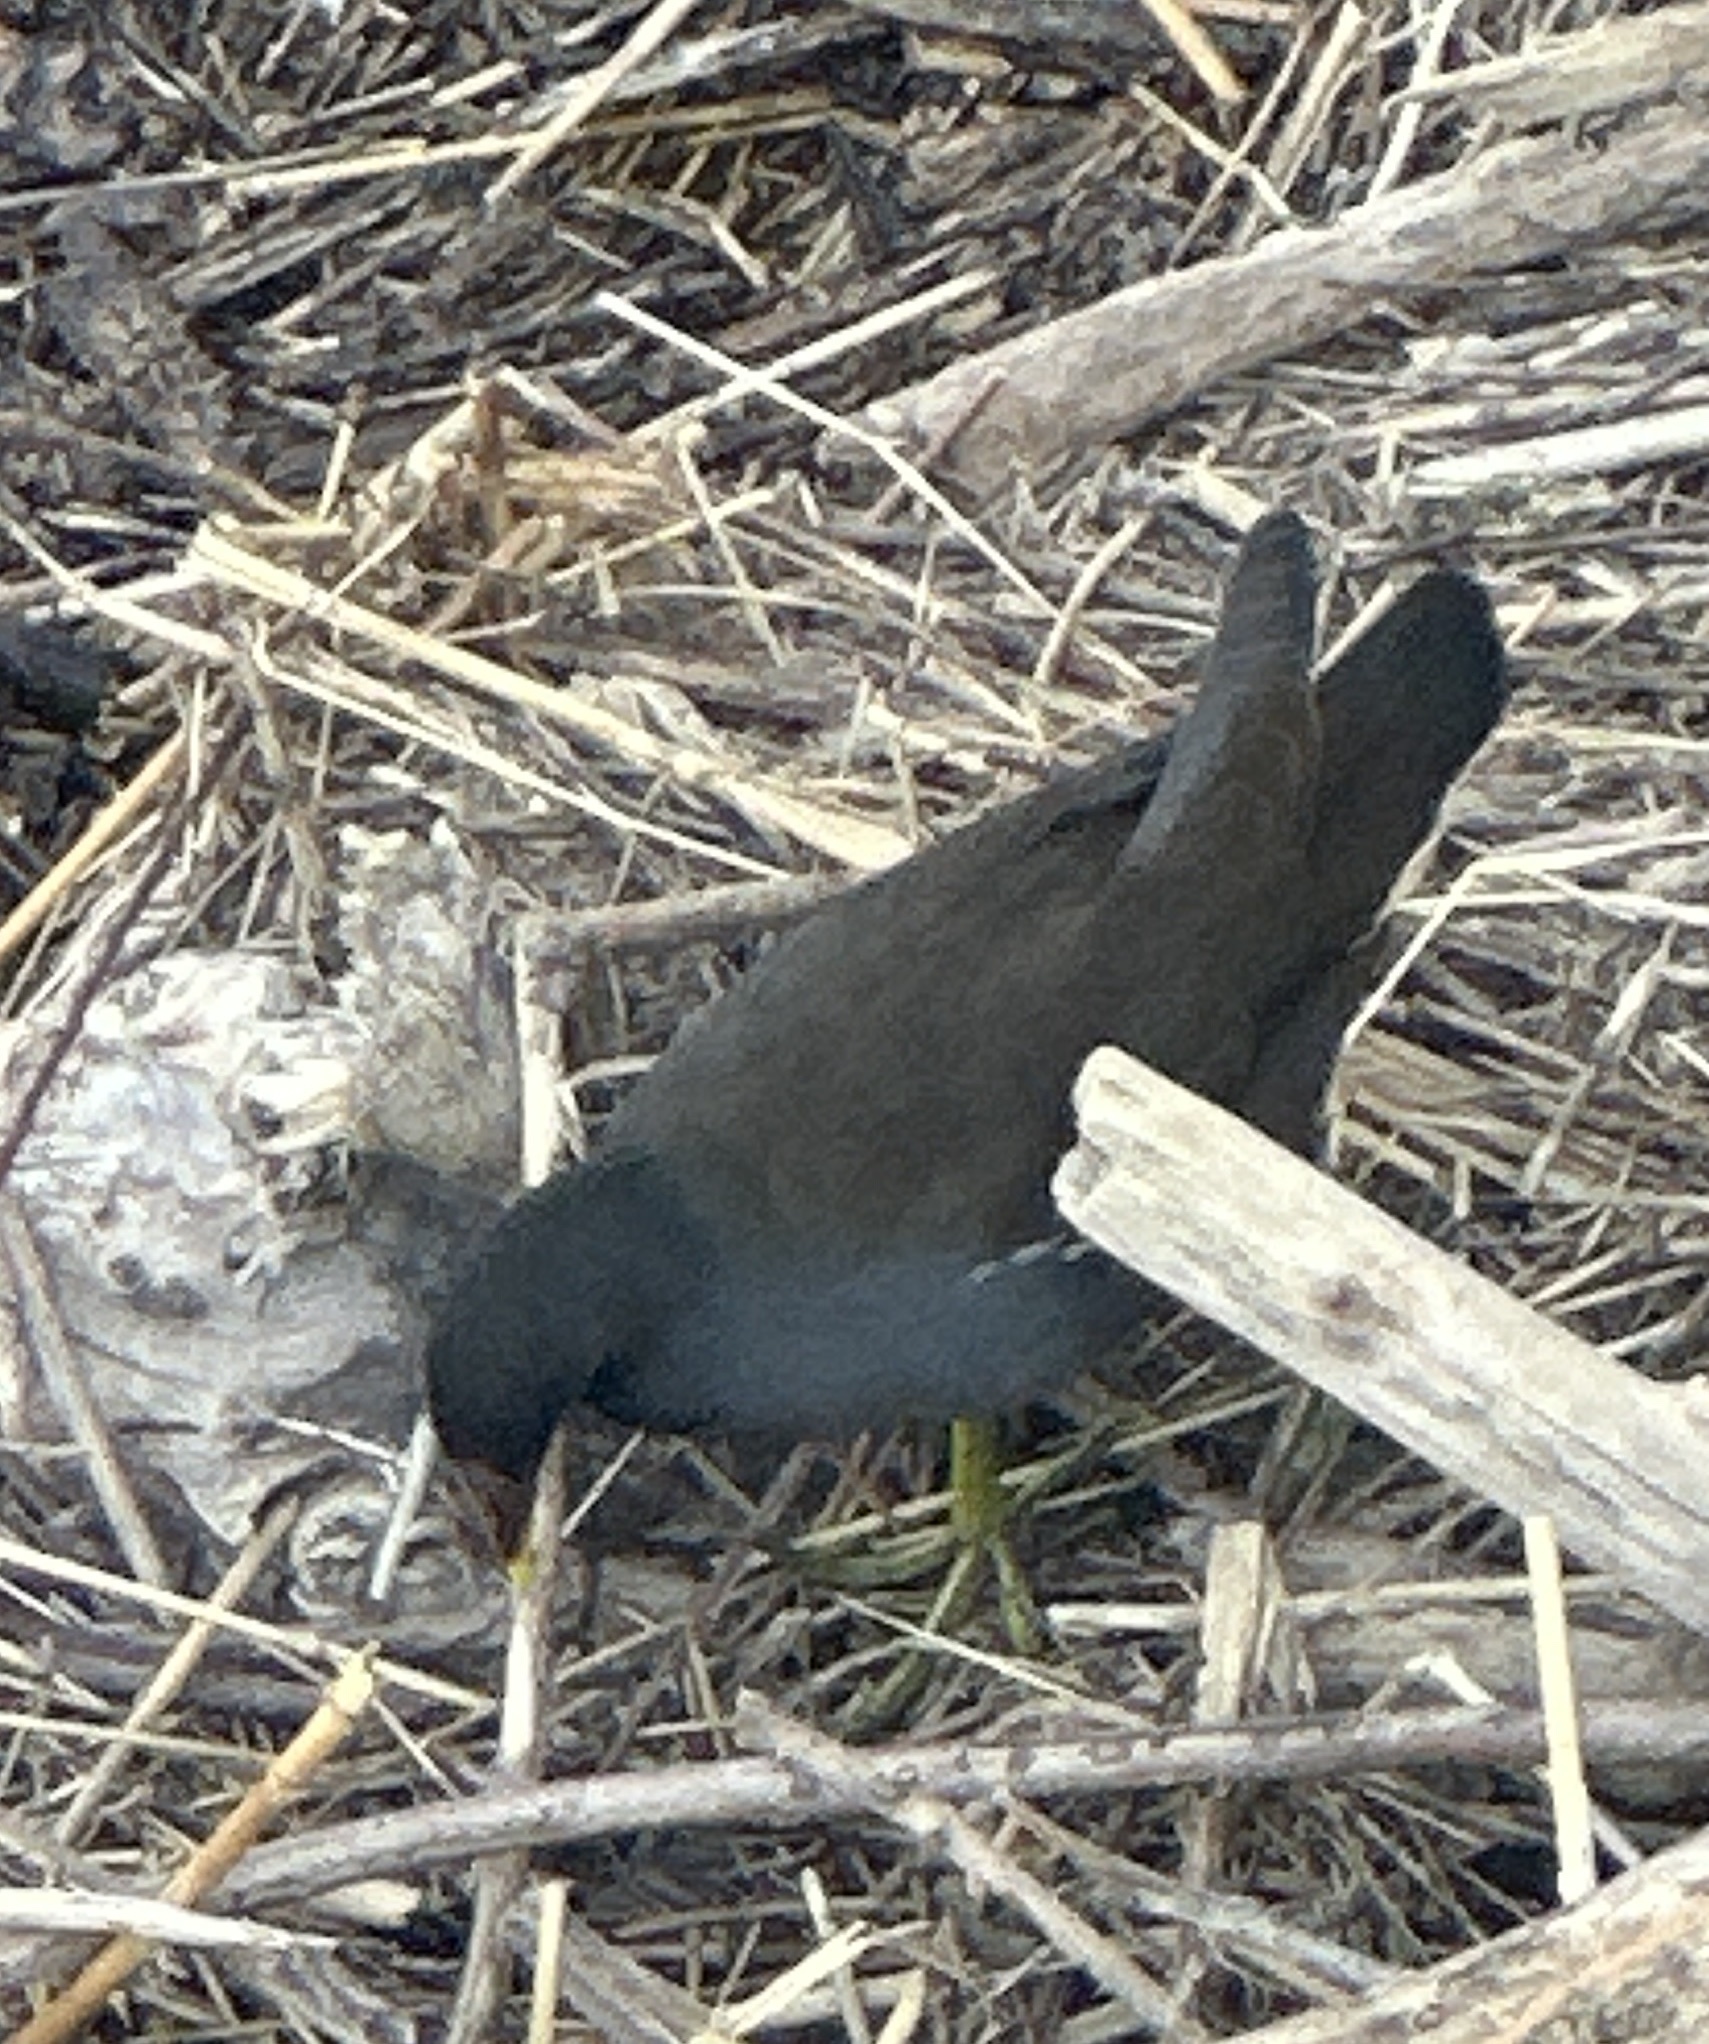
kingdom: Animalia
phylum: Chordata
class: Aves
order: Gruiformes
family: Rallidae
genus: Gallinula
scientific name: Gallinula chloropus
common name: Common moorhen
